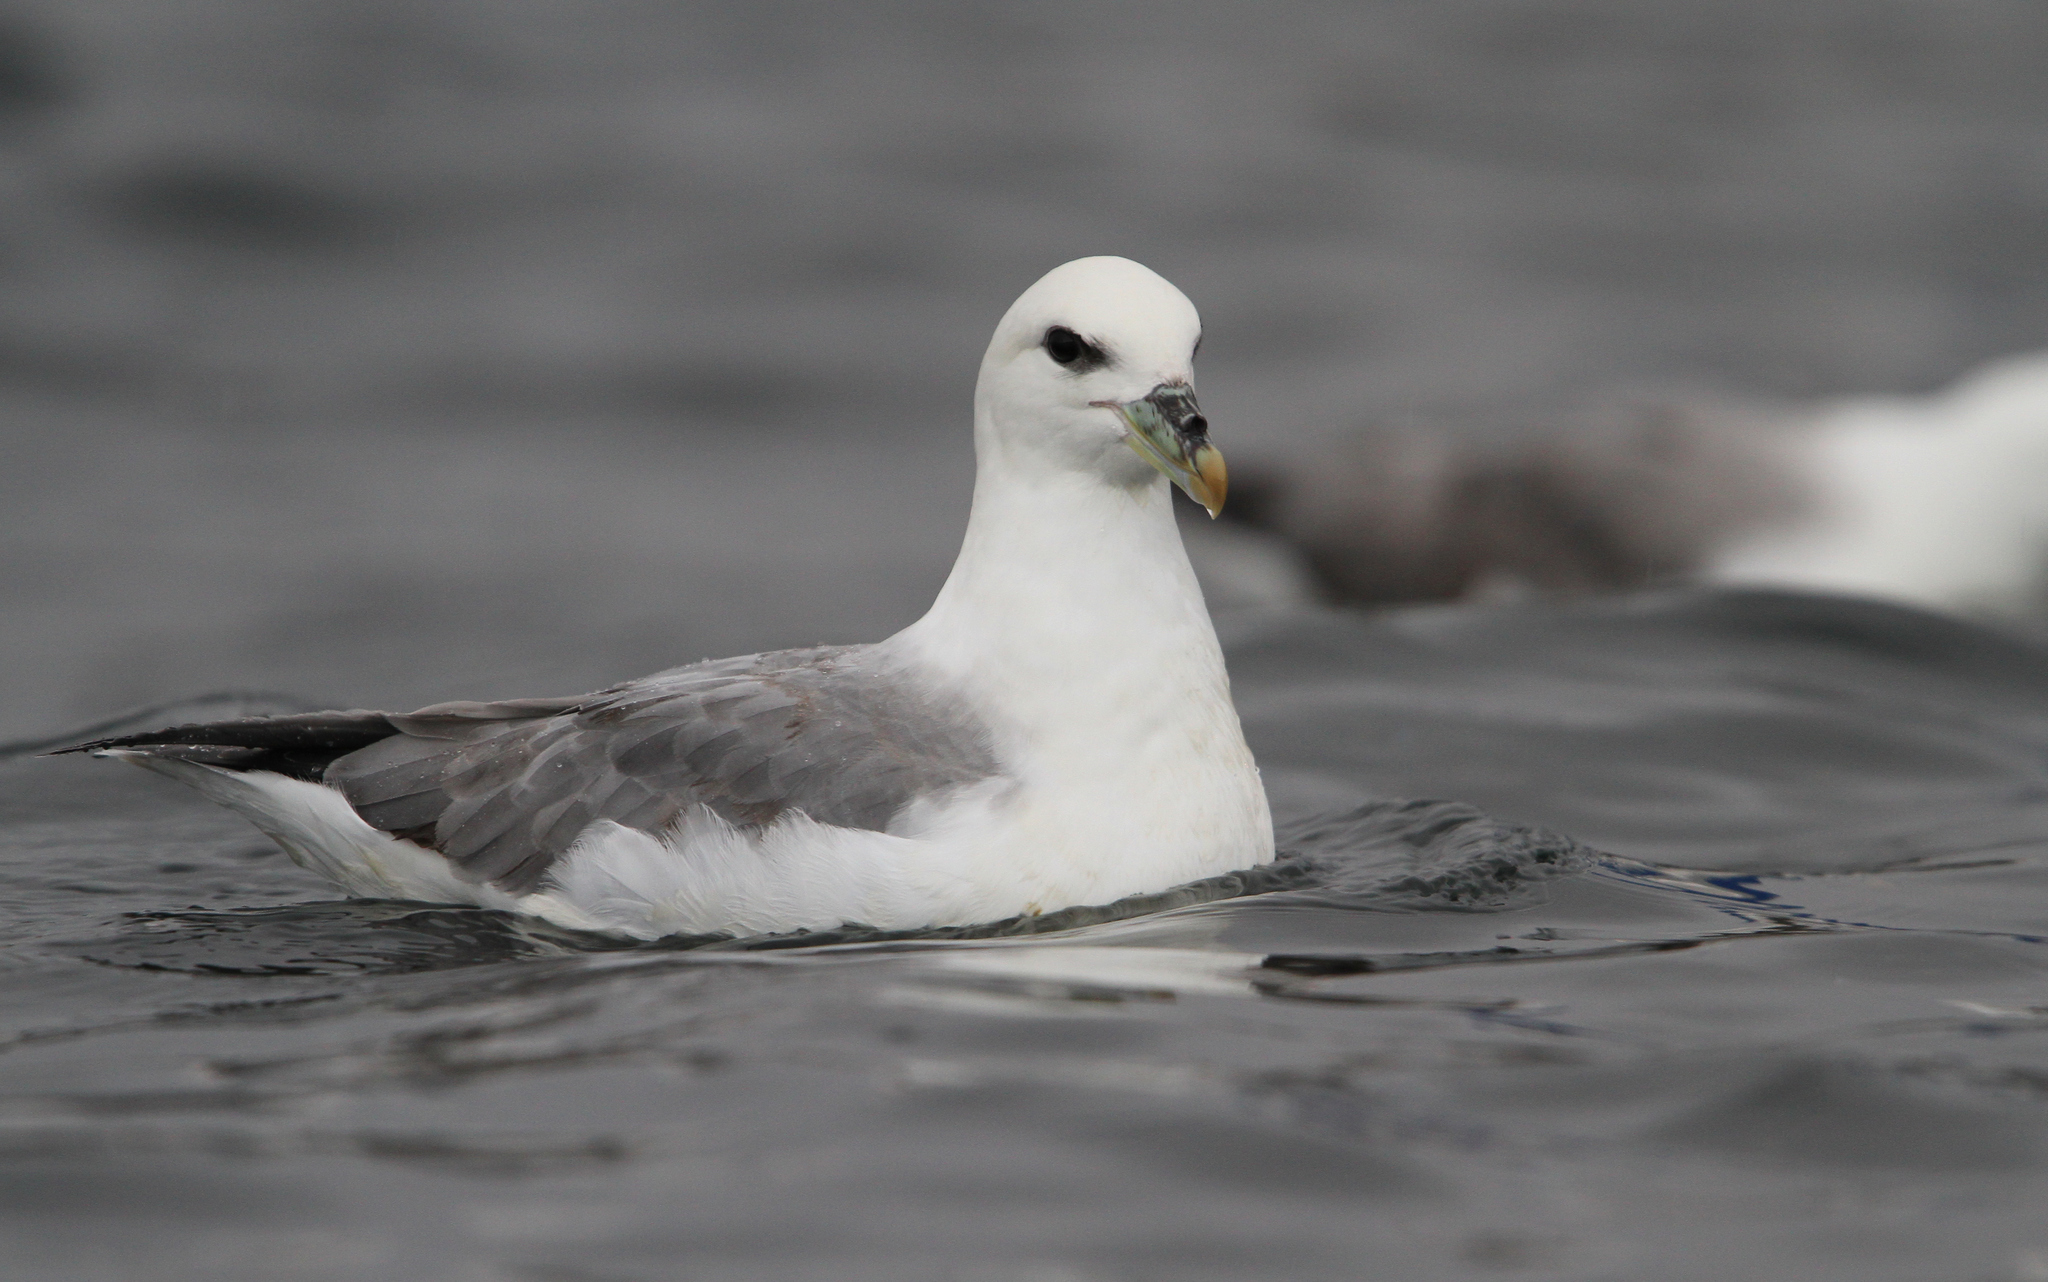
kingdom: Animalia
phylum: Chordata
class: Aves
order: Procellariiformes
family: Procellariidae
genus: Fulmarus
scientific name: Fulmarus glacialis
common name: Northern fulmar
